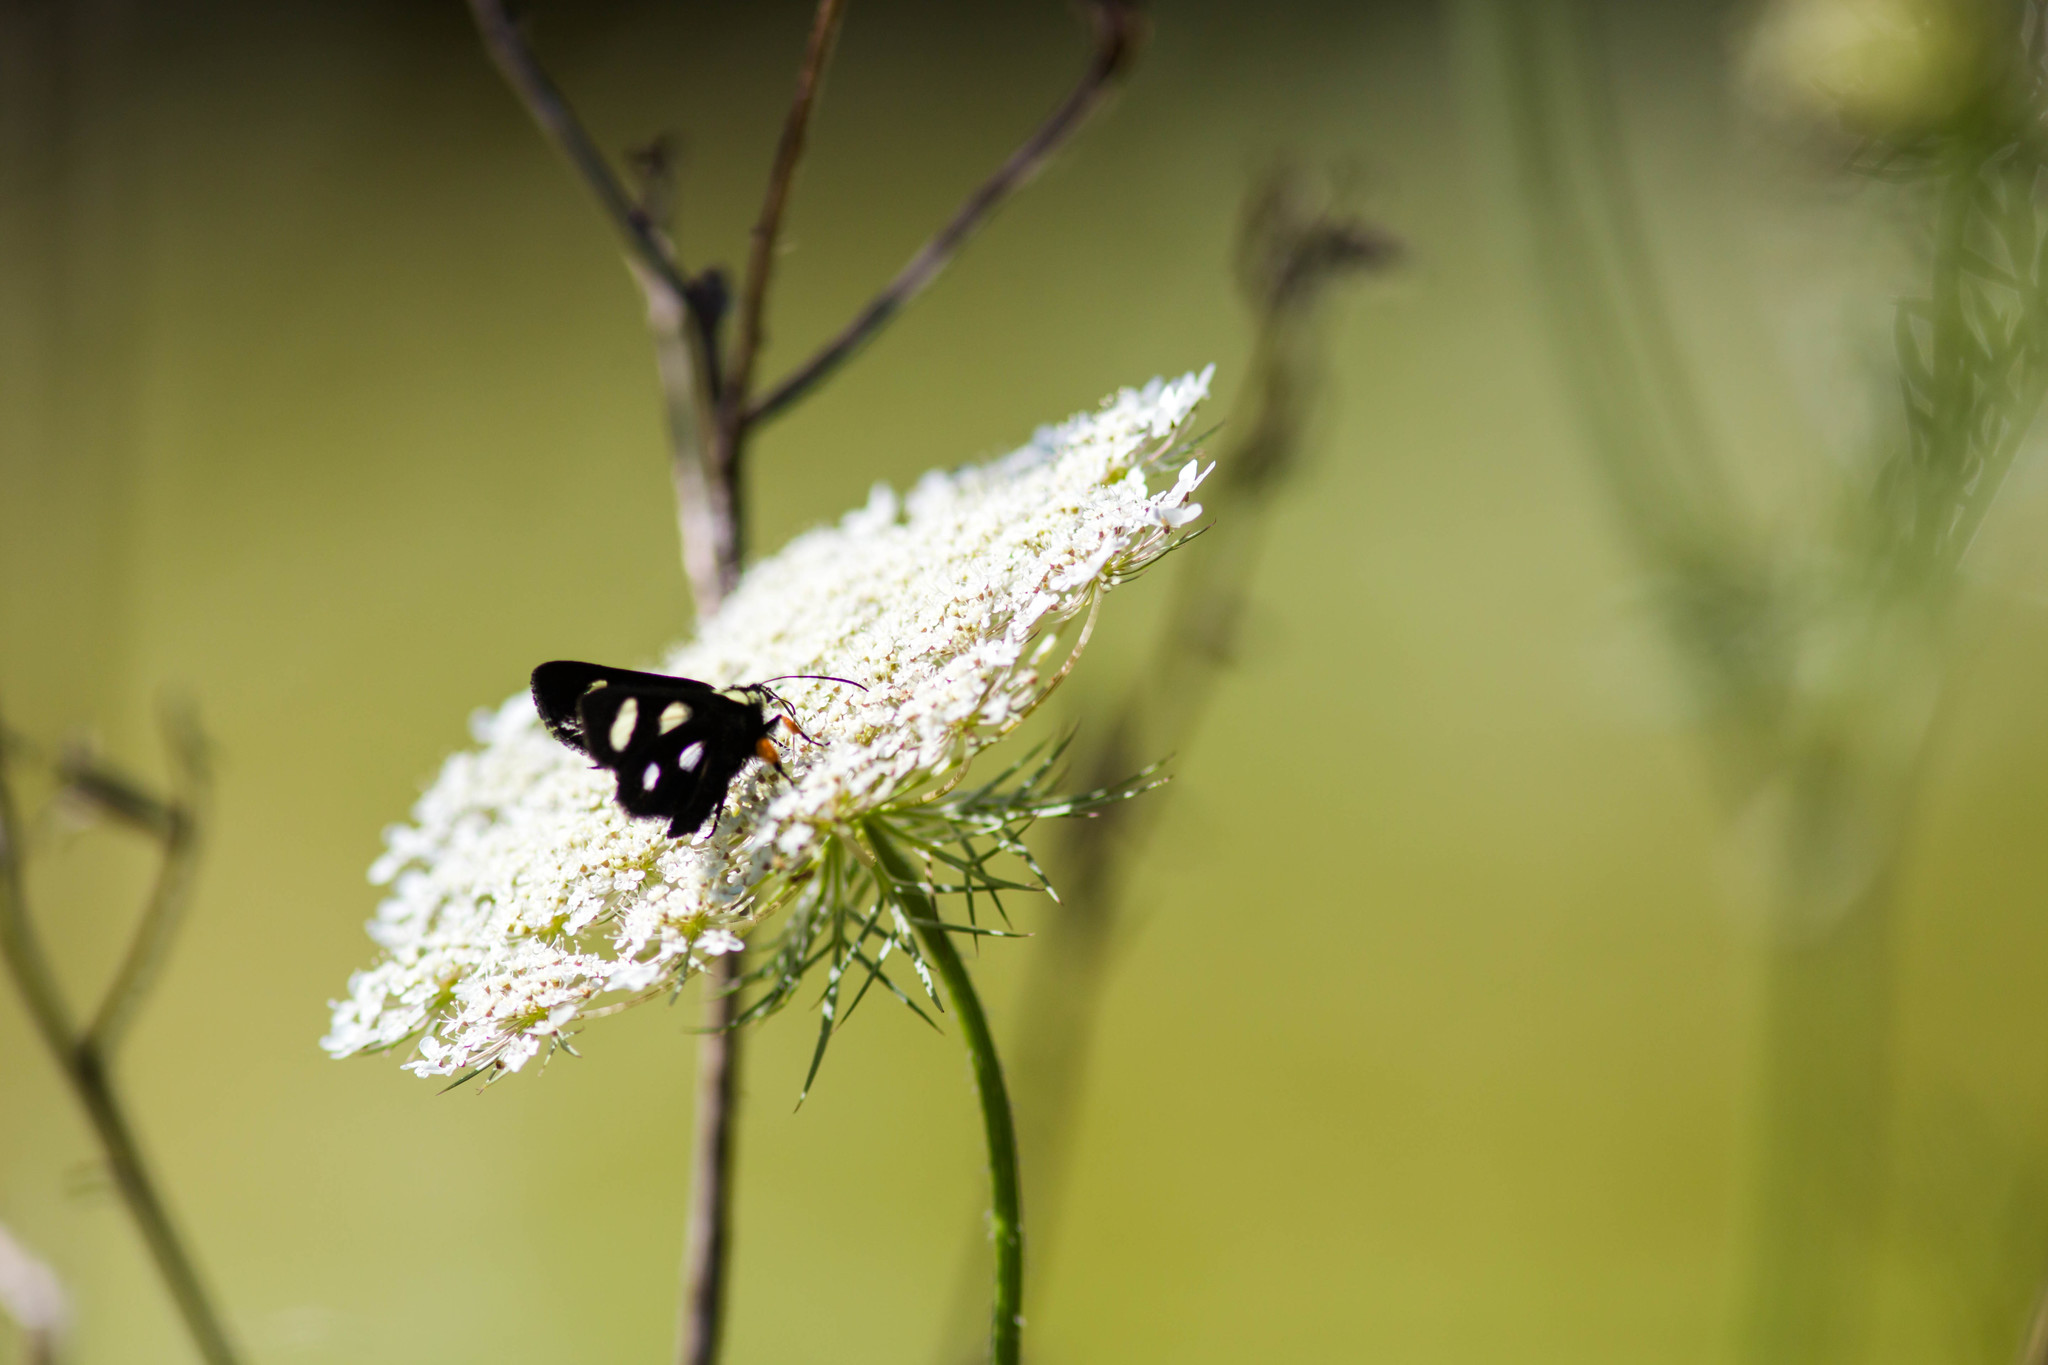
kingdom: Animalia
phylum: Arthropoda
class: Insecta
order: Lepidoptera
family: Noctuidae
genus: Alypia
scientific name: Alypia octomaculata
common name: Eight-spotted forester
